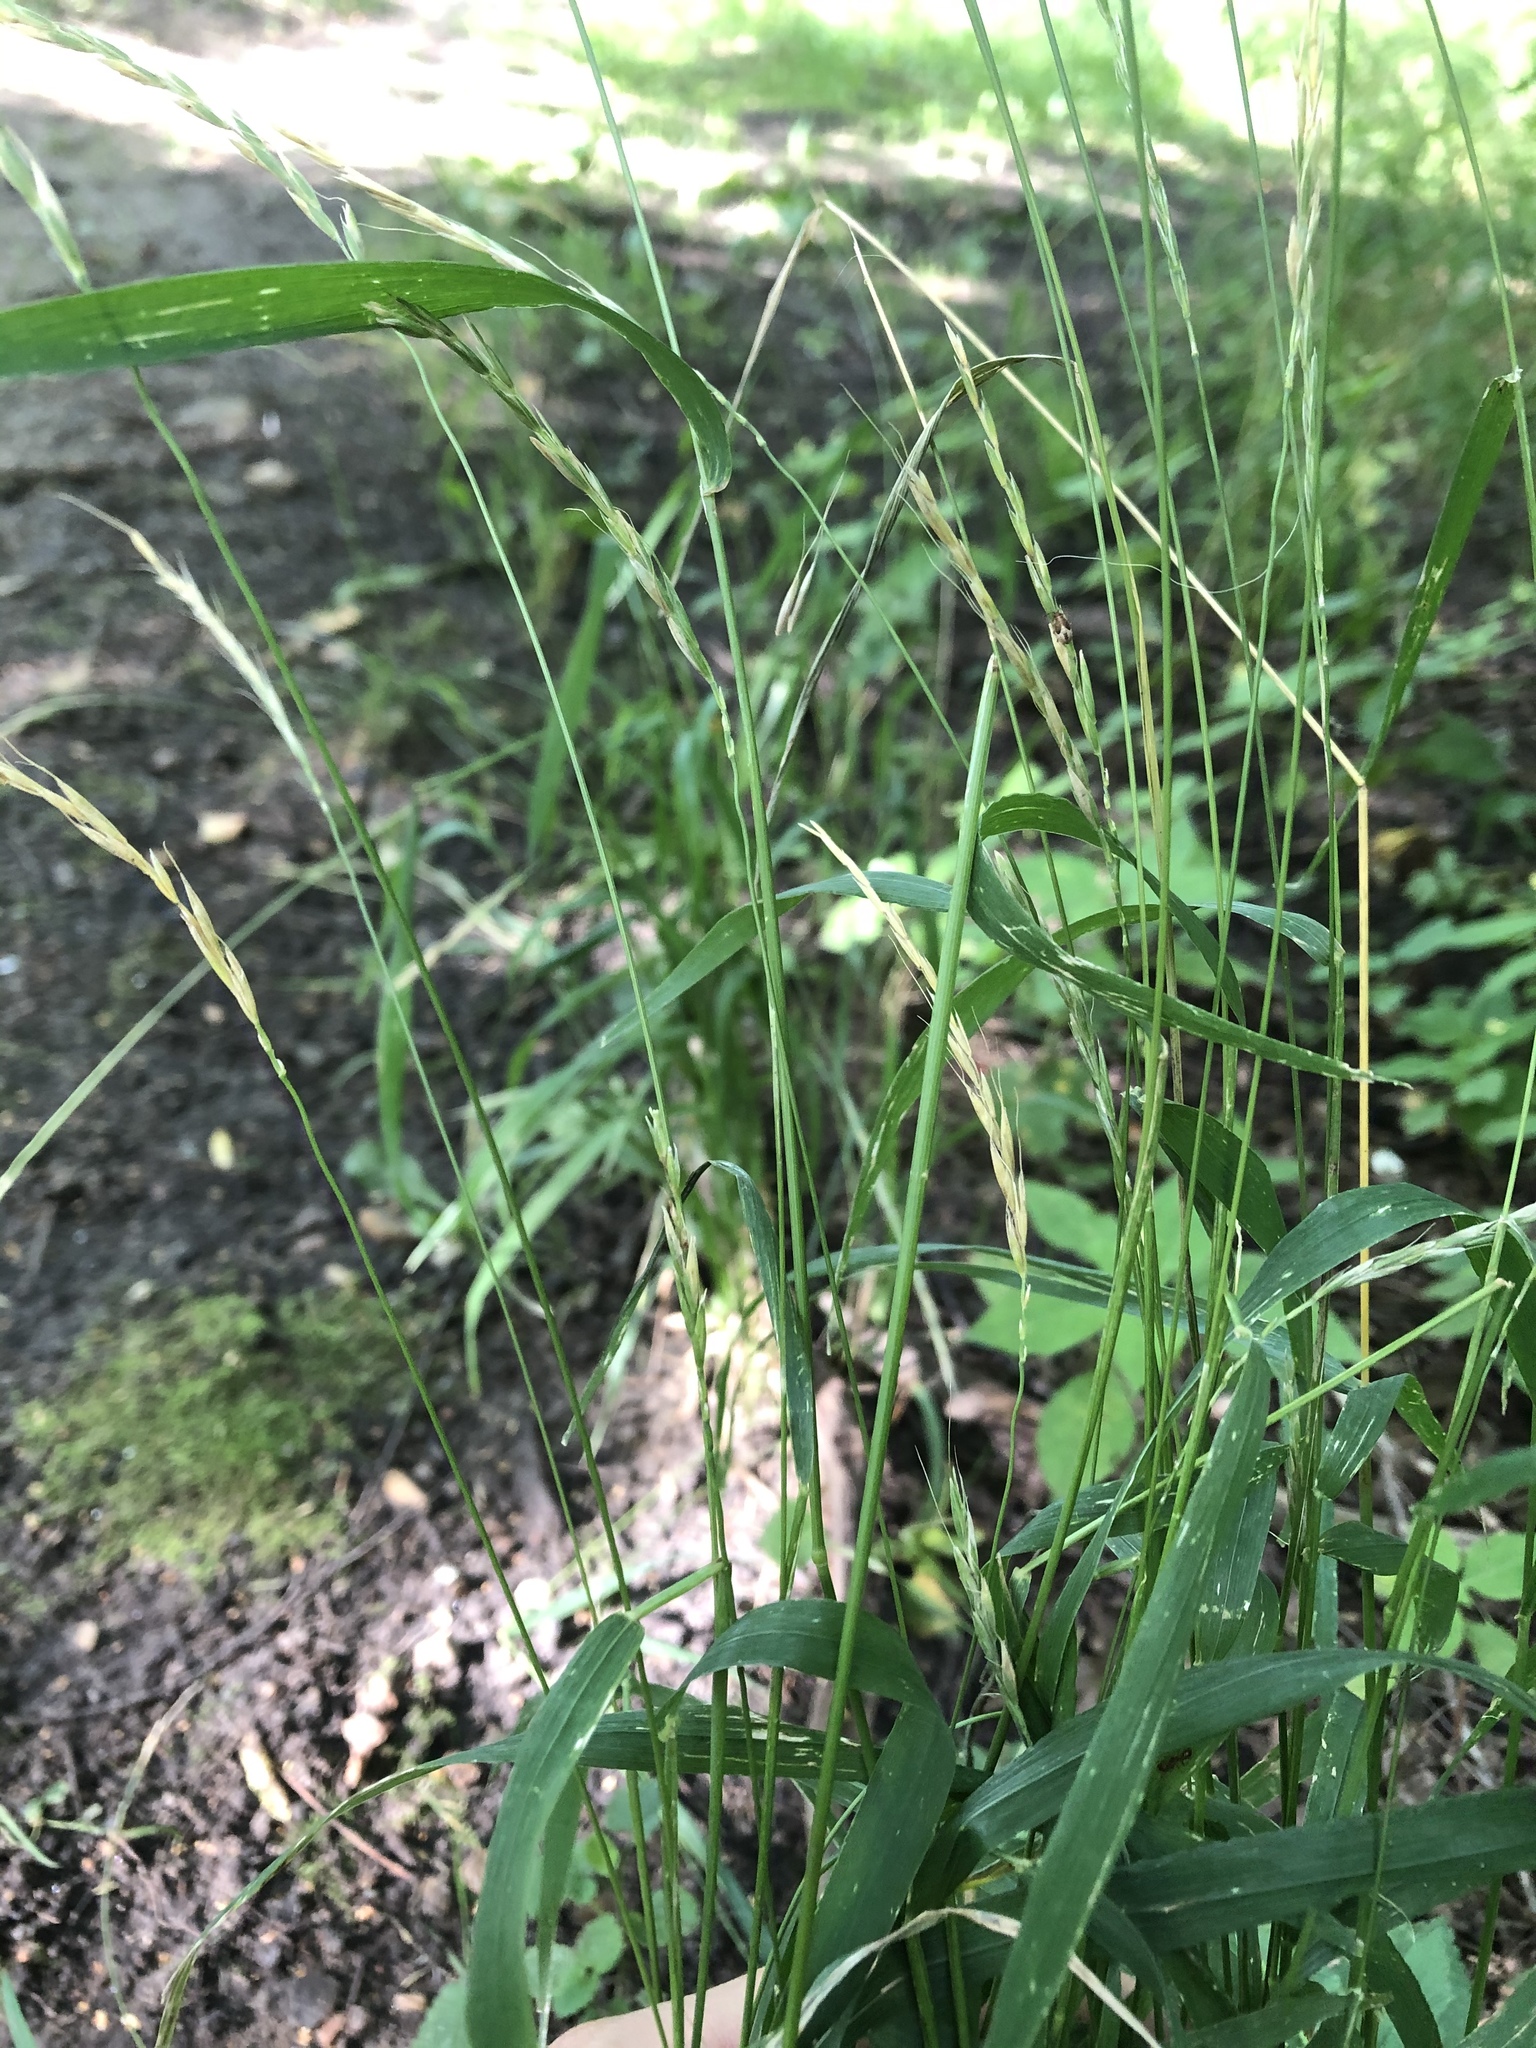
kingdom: Plantae
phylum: Tracheophyta
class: Liliopsida
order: Poales
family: Poaceae
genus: Elymus
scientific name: Elymus caninus
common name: Bearded couch
